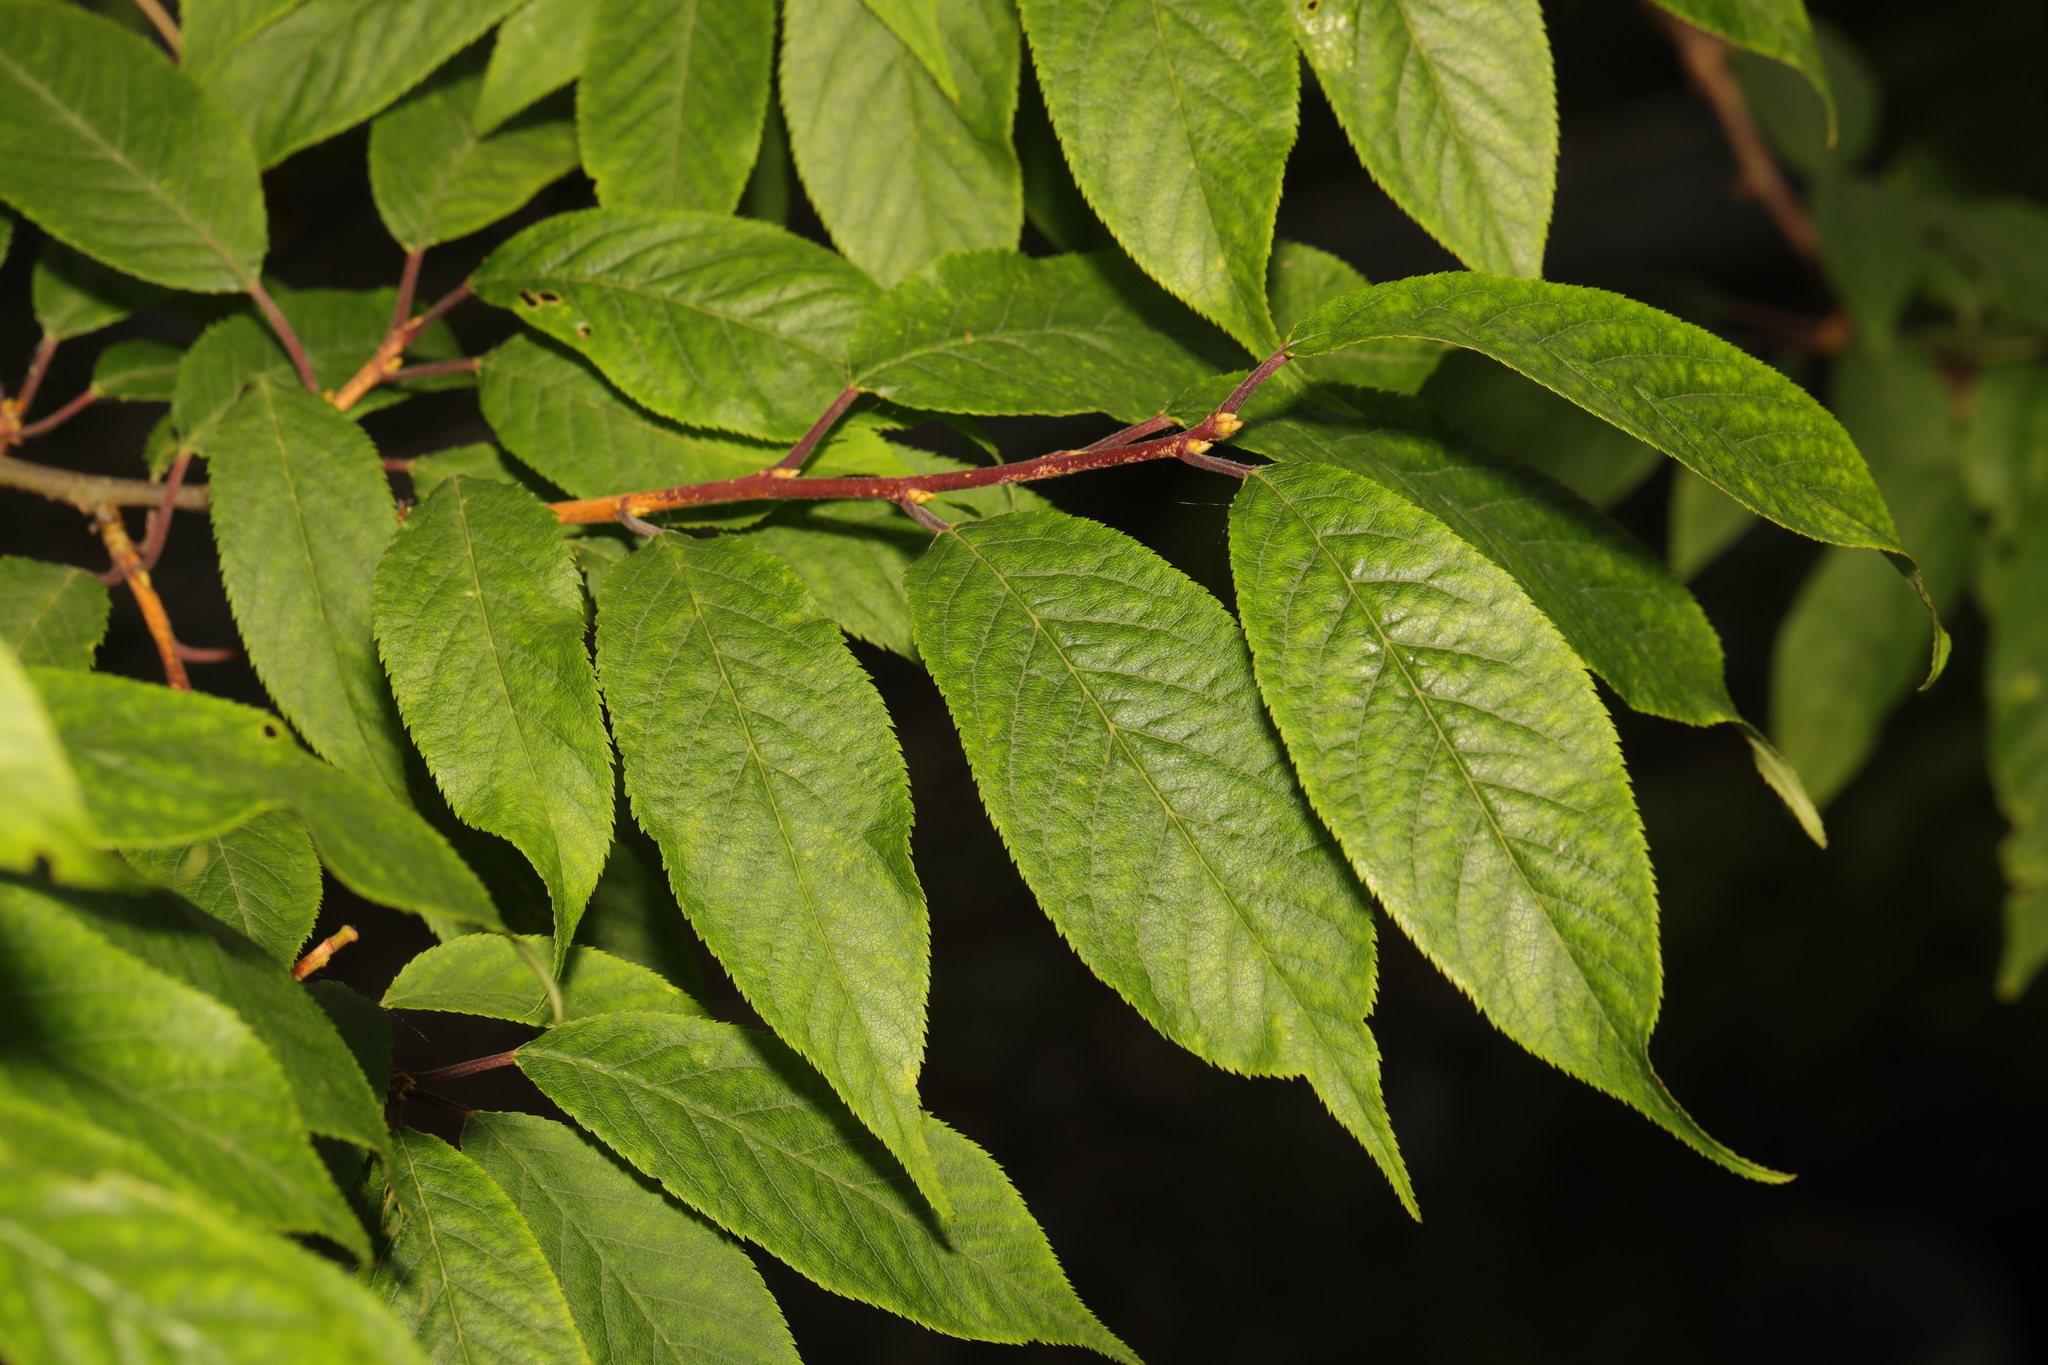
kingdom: Plantae
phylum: Tracheophyta
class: Magnoliopsida
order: Rosales
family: Rosaceae
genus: Prunus
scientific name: Prunus padus
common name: Bird cherry
